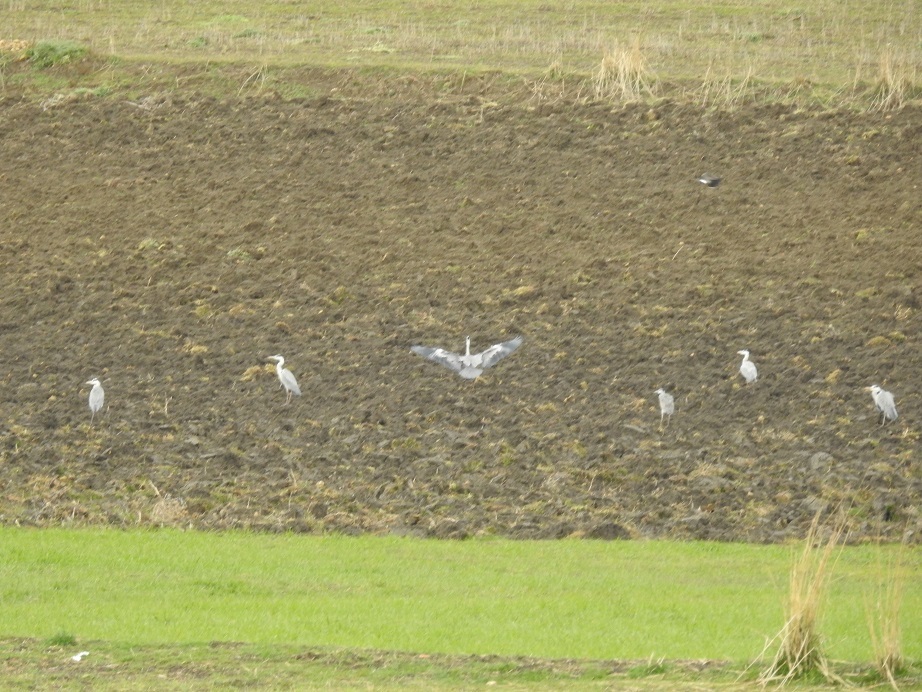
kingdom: Animalia
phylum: Chordata
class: Aves
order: Pelecaniformes
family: Ardeidae
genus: Ardea
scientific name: Ardea cinerea
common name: Grey heron
